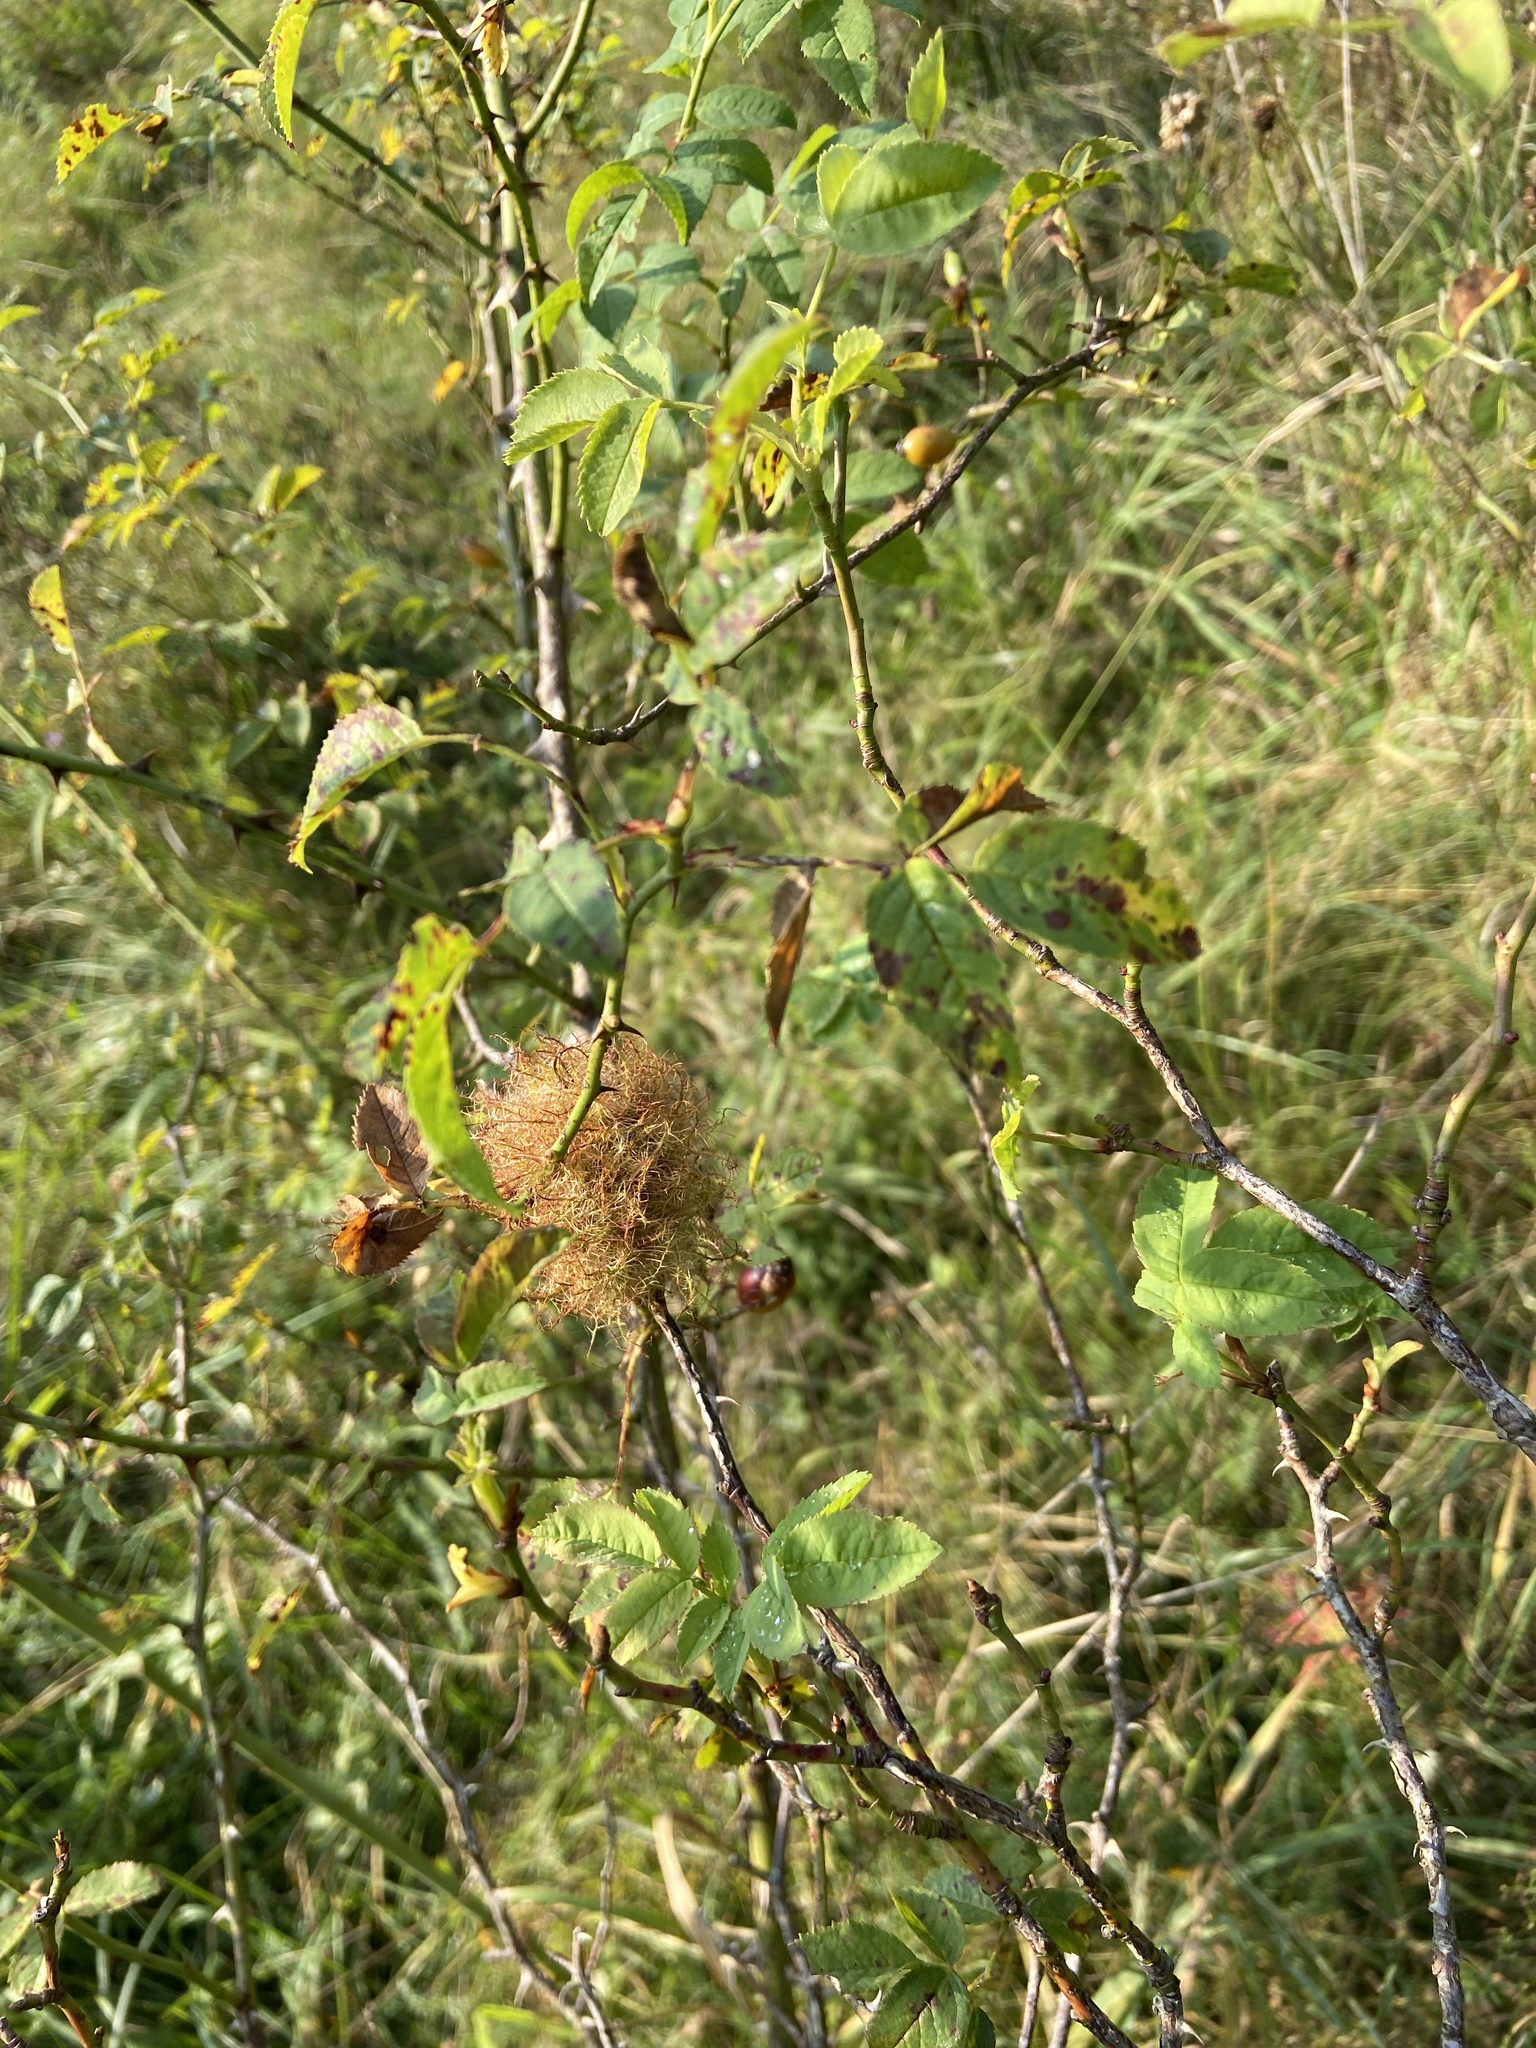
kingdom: Animalia
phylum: Arthropoda
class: Insecta
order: Hymenoptera
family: Cynipidae
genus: Diplolepis
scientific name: Diplolepis rosae
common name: Bedeguar gall
